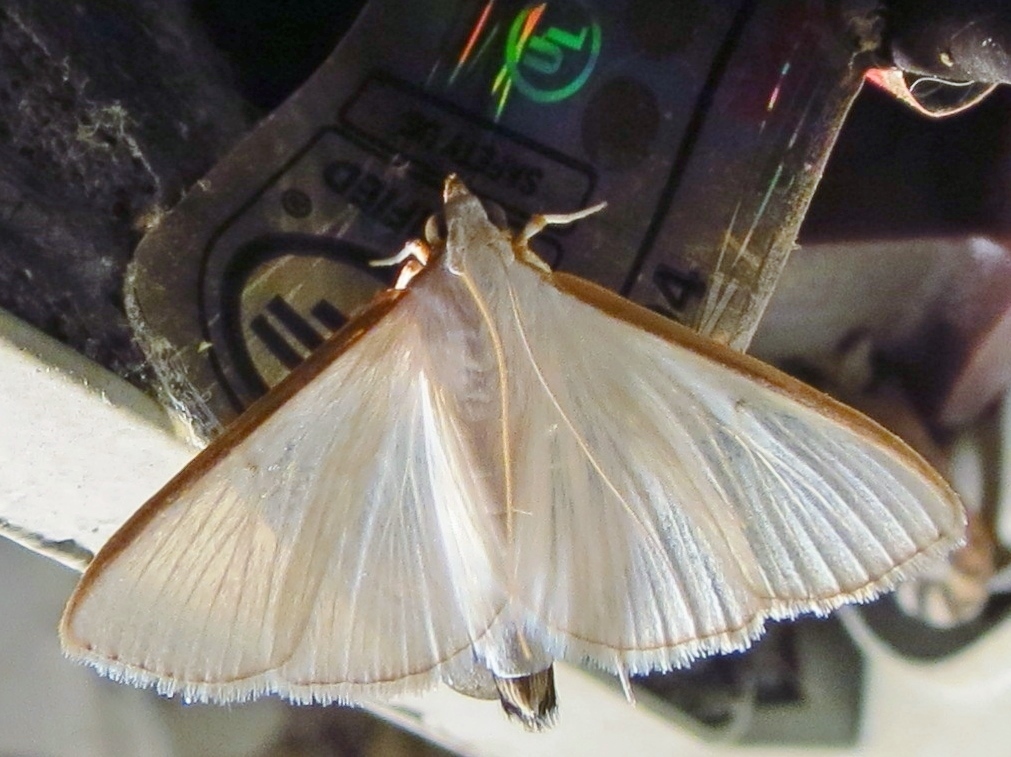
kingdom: Animalia
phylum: Arthropoda
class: Insecta
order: Lepidoptera
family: Crambidae
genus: Diaphania
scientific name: Diaphania costata
